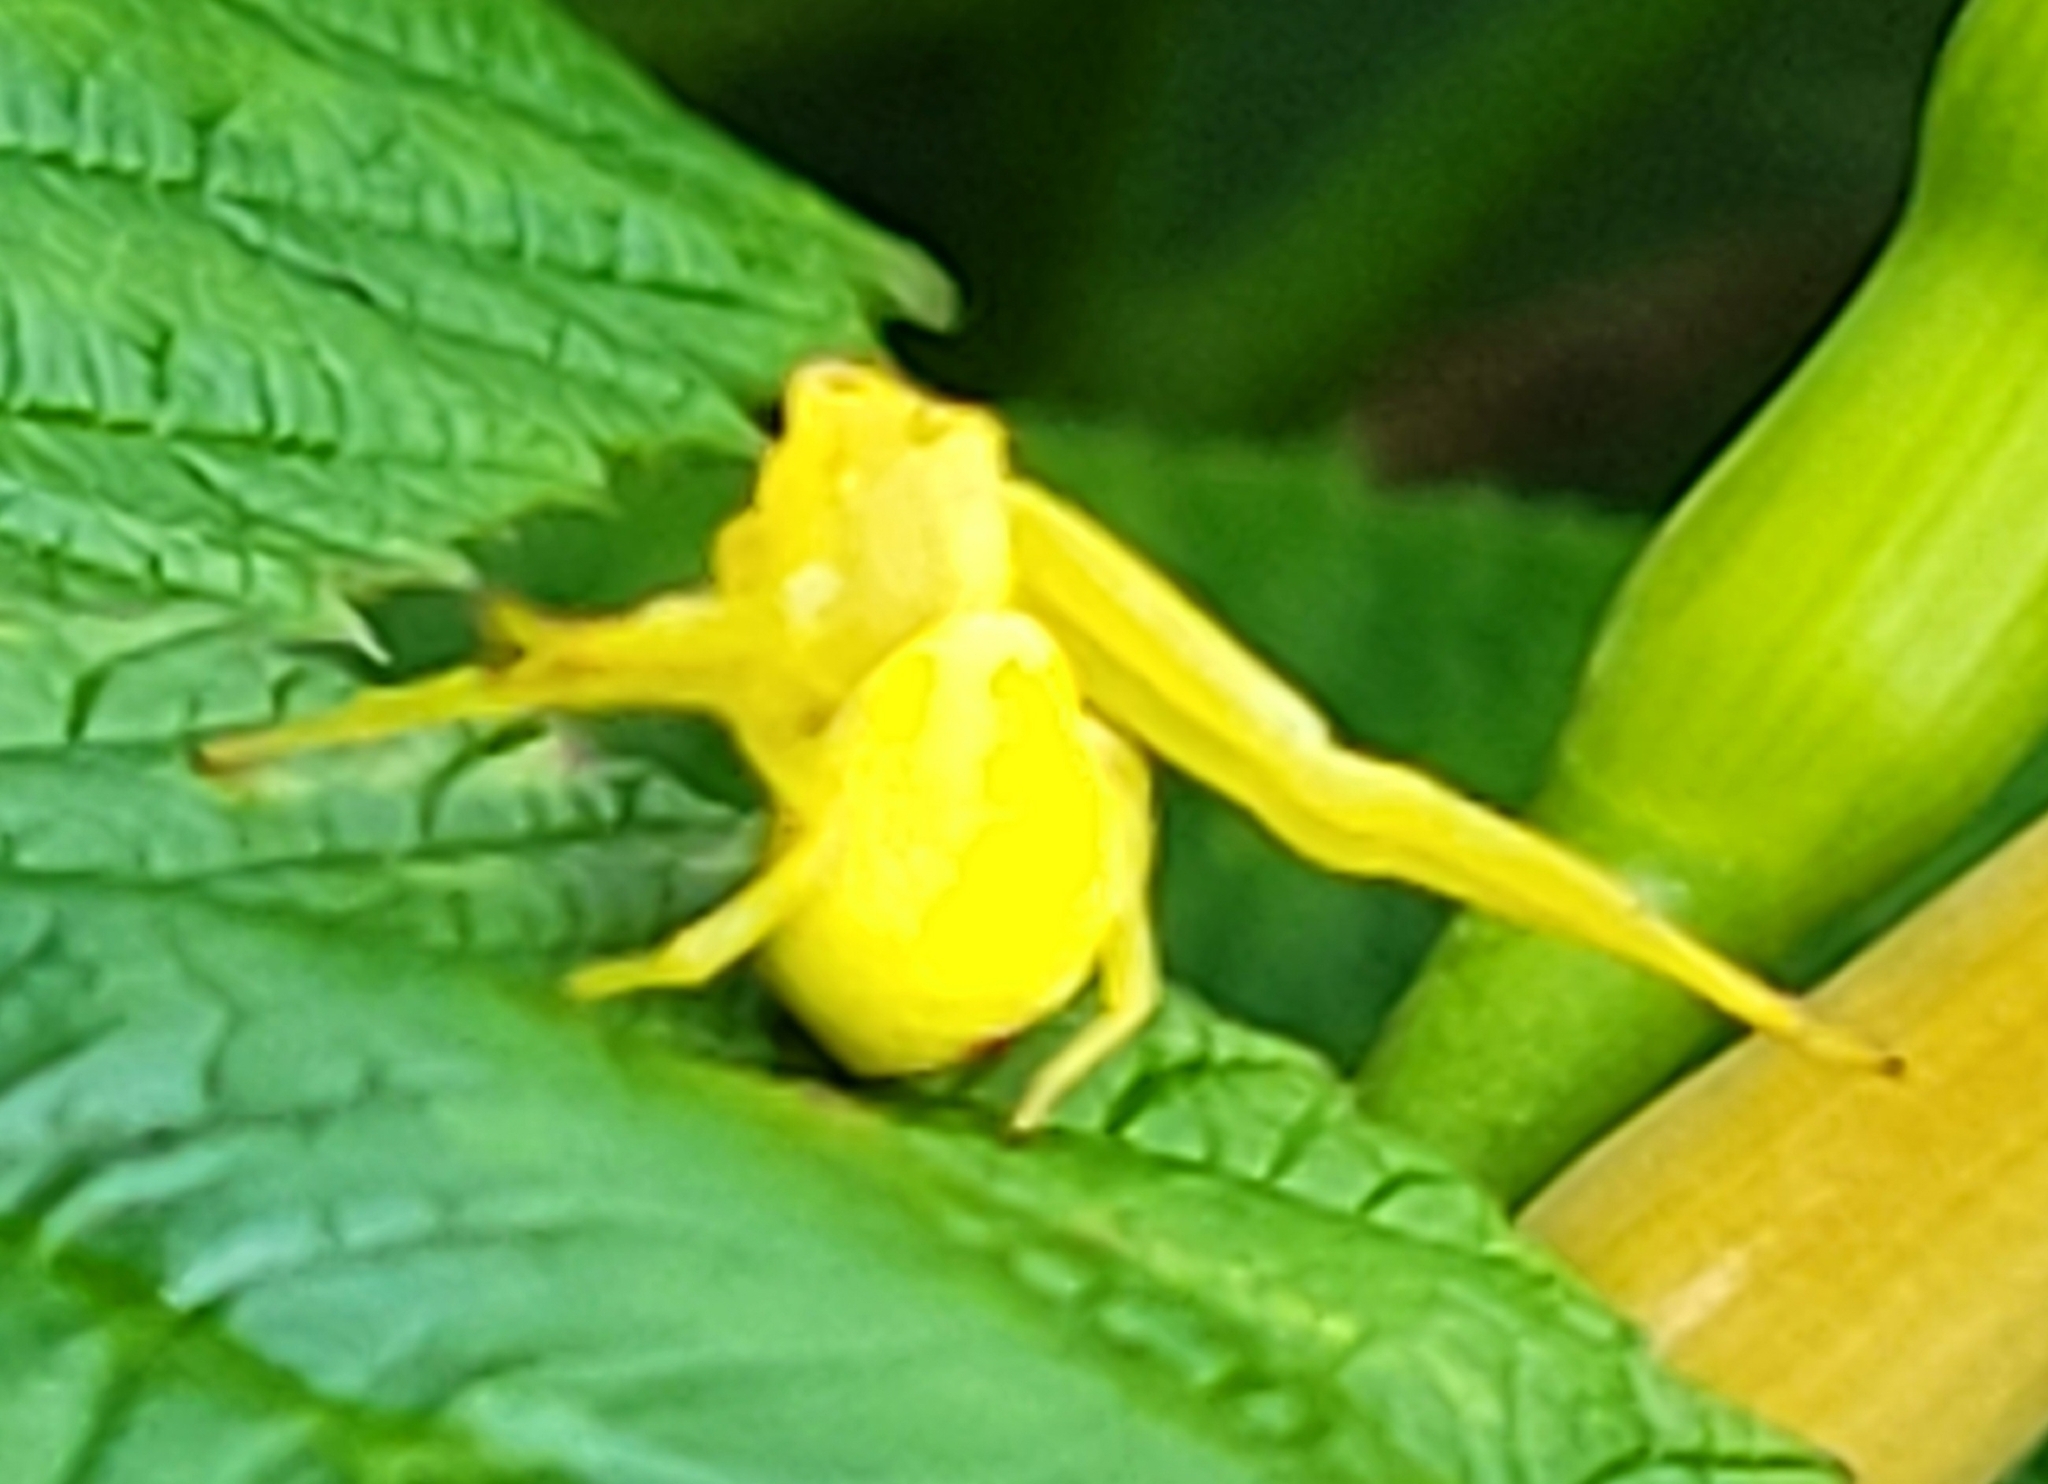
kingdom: Animalia
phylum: Arthropoda
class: Arachnida
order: Araneae
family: Thomisidae
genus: Misumena
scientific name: Misumena vatia
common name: Goldenrod crab spider
